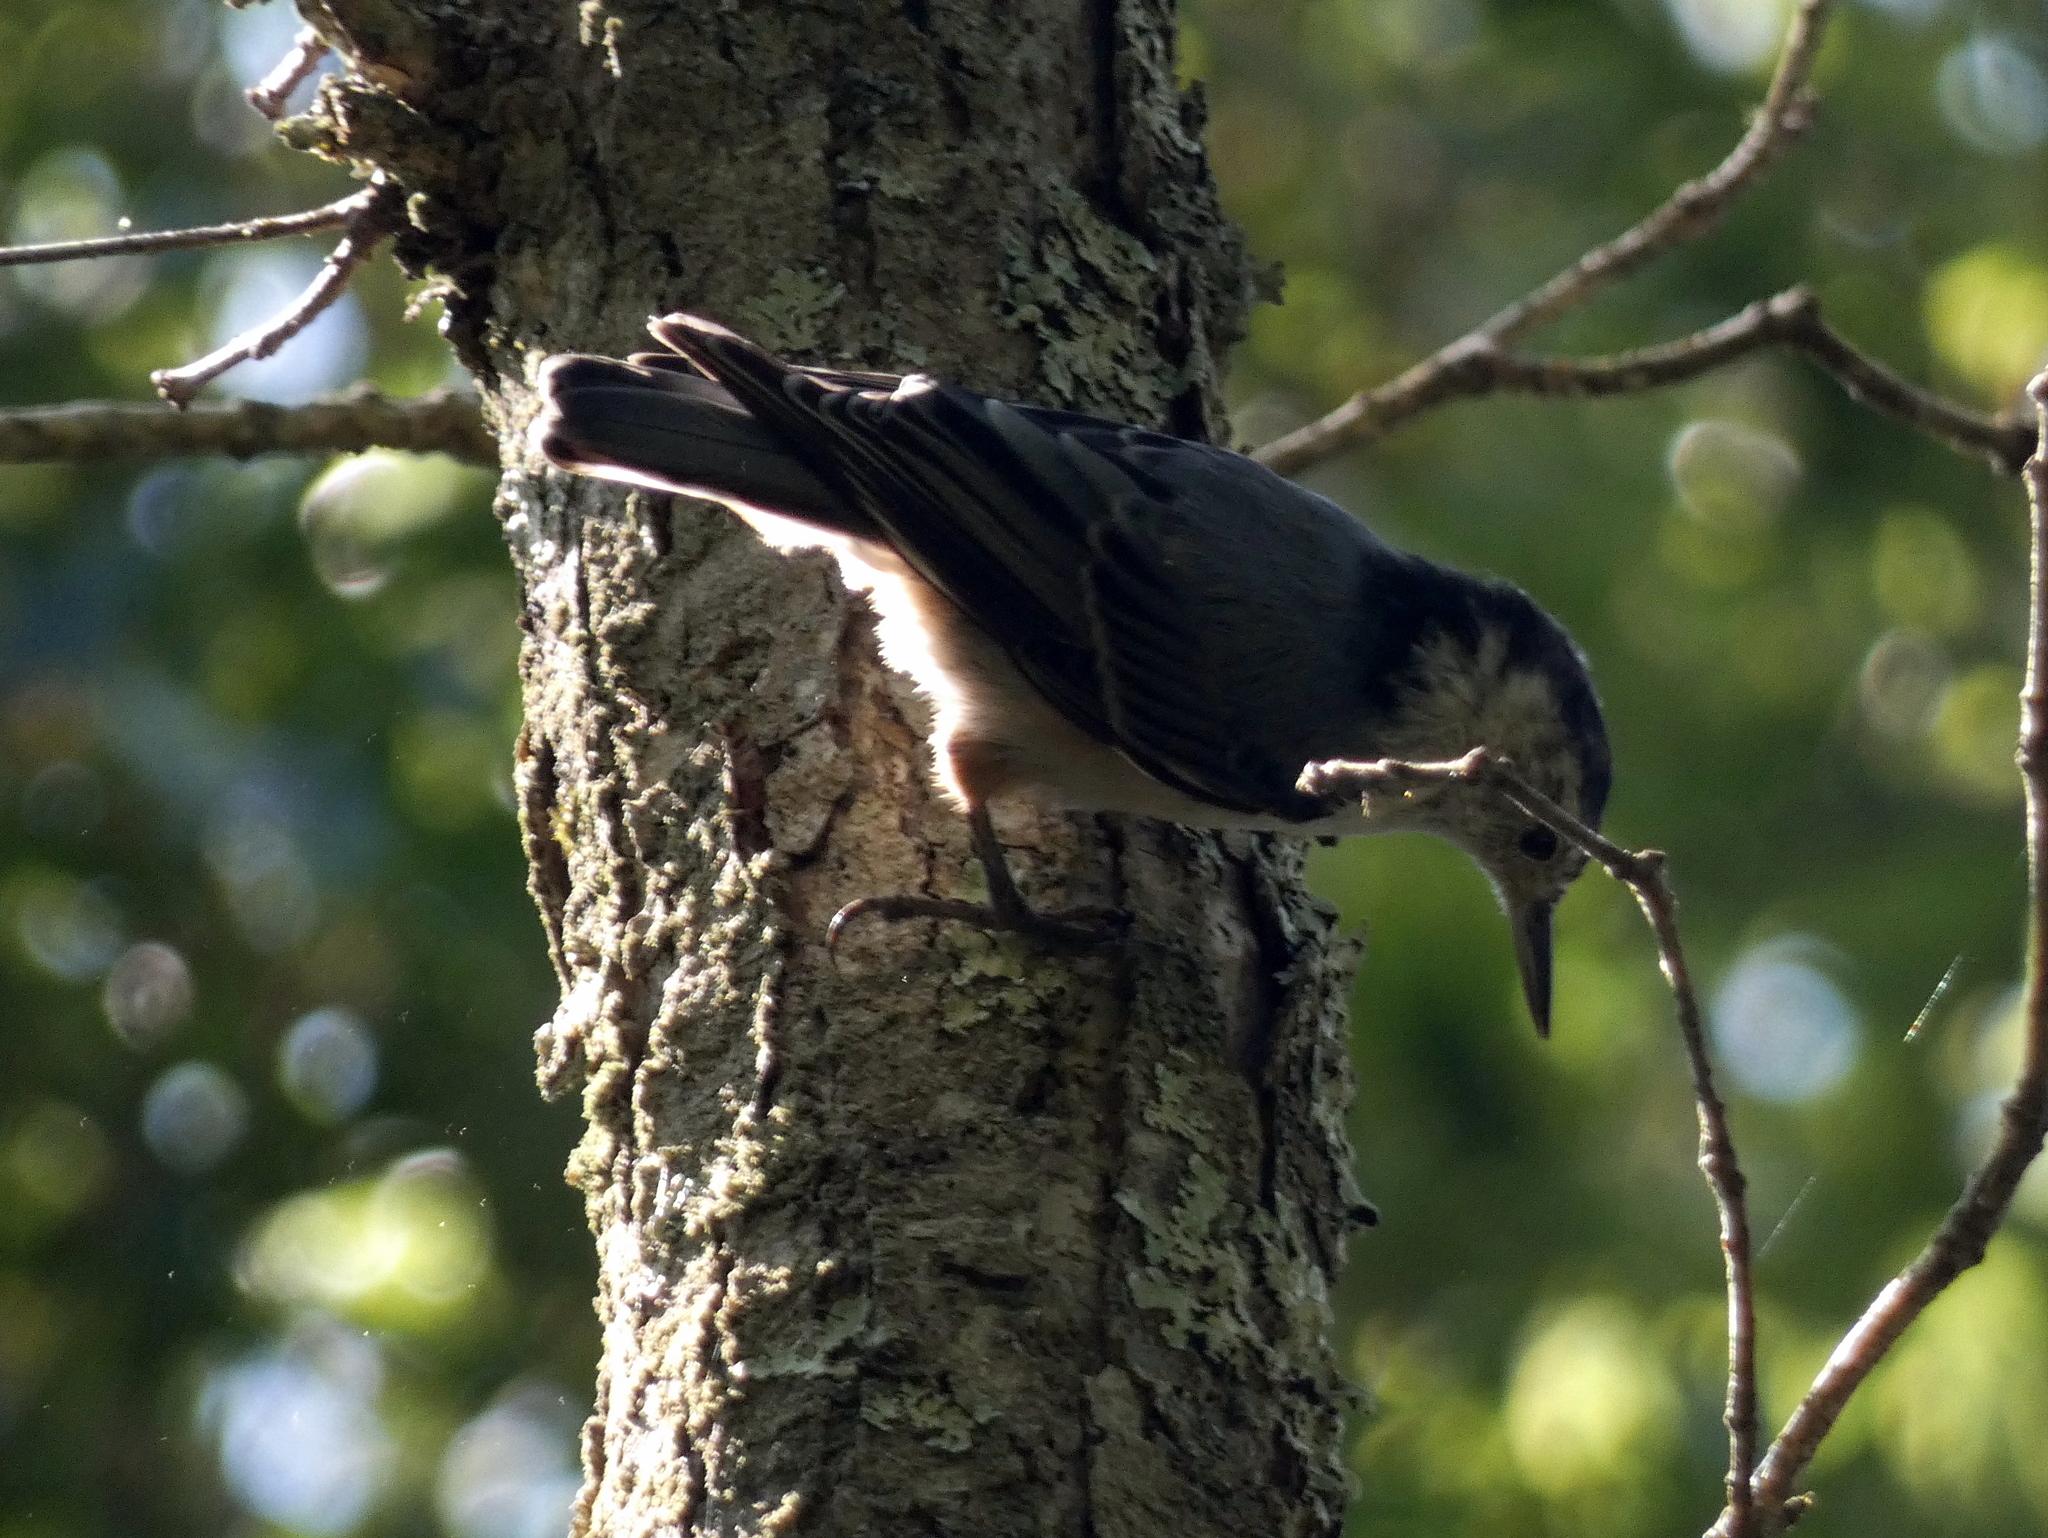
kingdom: Animalia
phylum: Chordata
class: Aves
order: Passeriformes
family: Sittidae
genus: Sitta
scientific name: Sitta carolinensis
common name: White-breasted nuthatch
